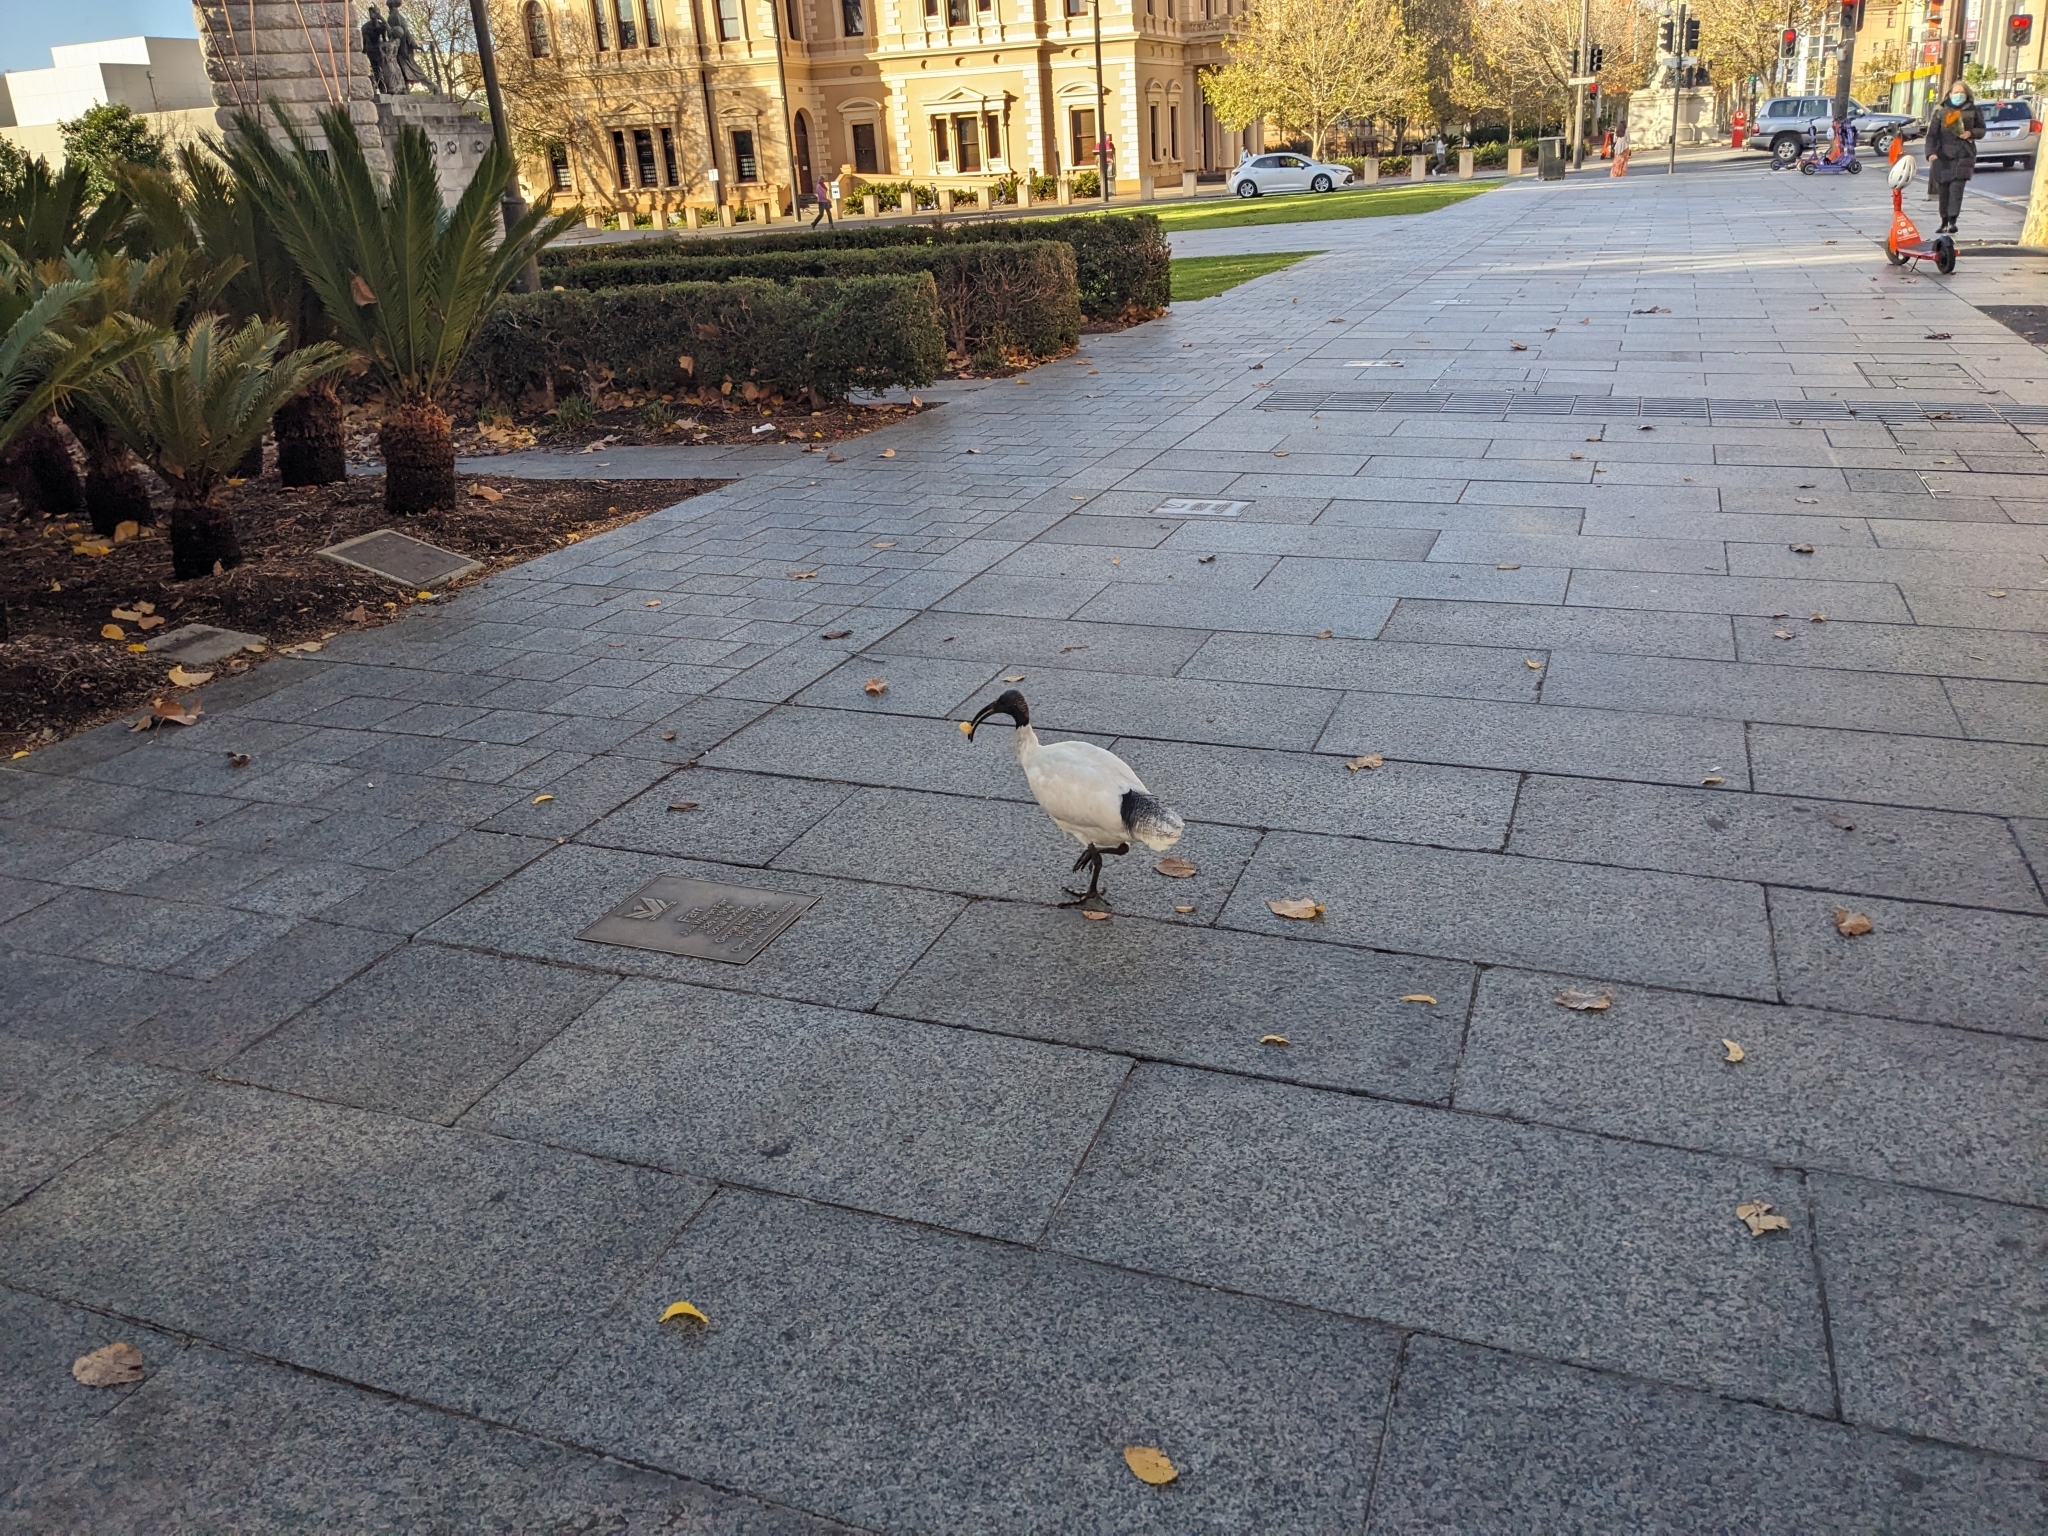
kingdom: Animalia
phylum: Chordata
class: Aves
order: Pelecaniformes
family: Threskiornithidae
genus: Threskiornis
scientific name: Threskiornis molucca
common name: Australian white ibis
